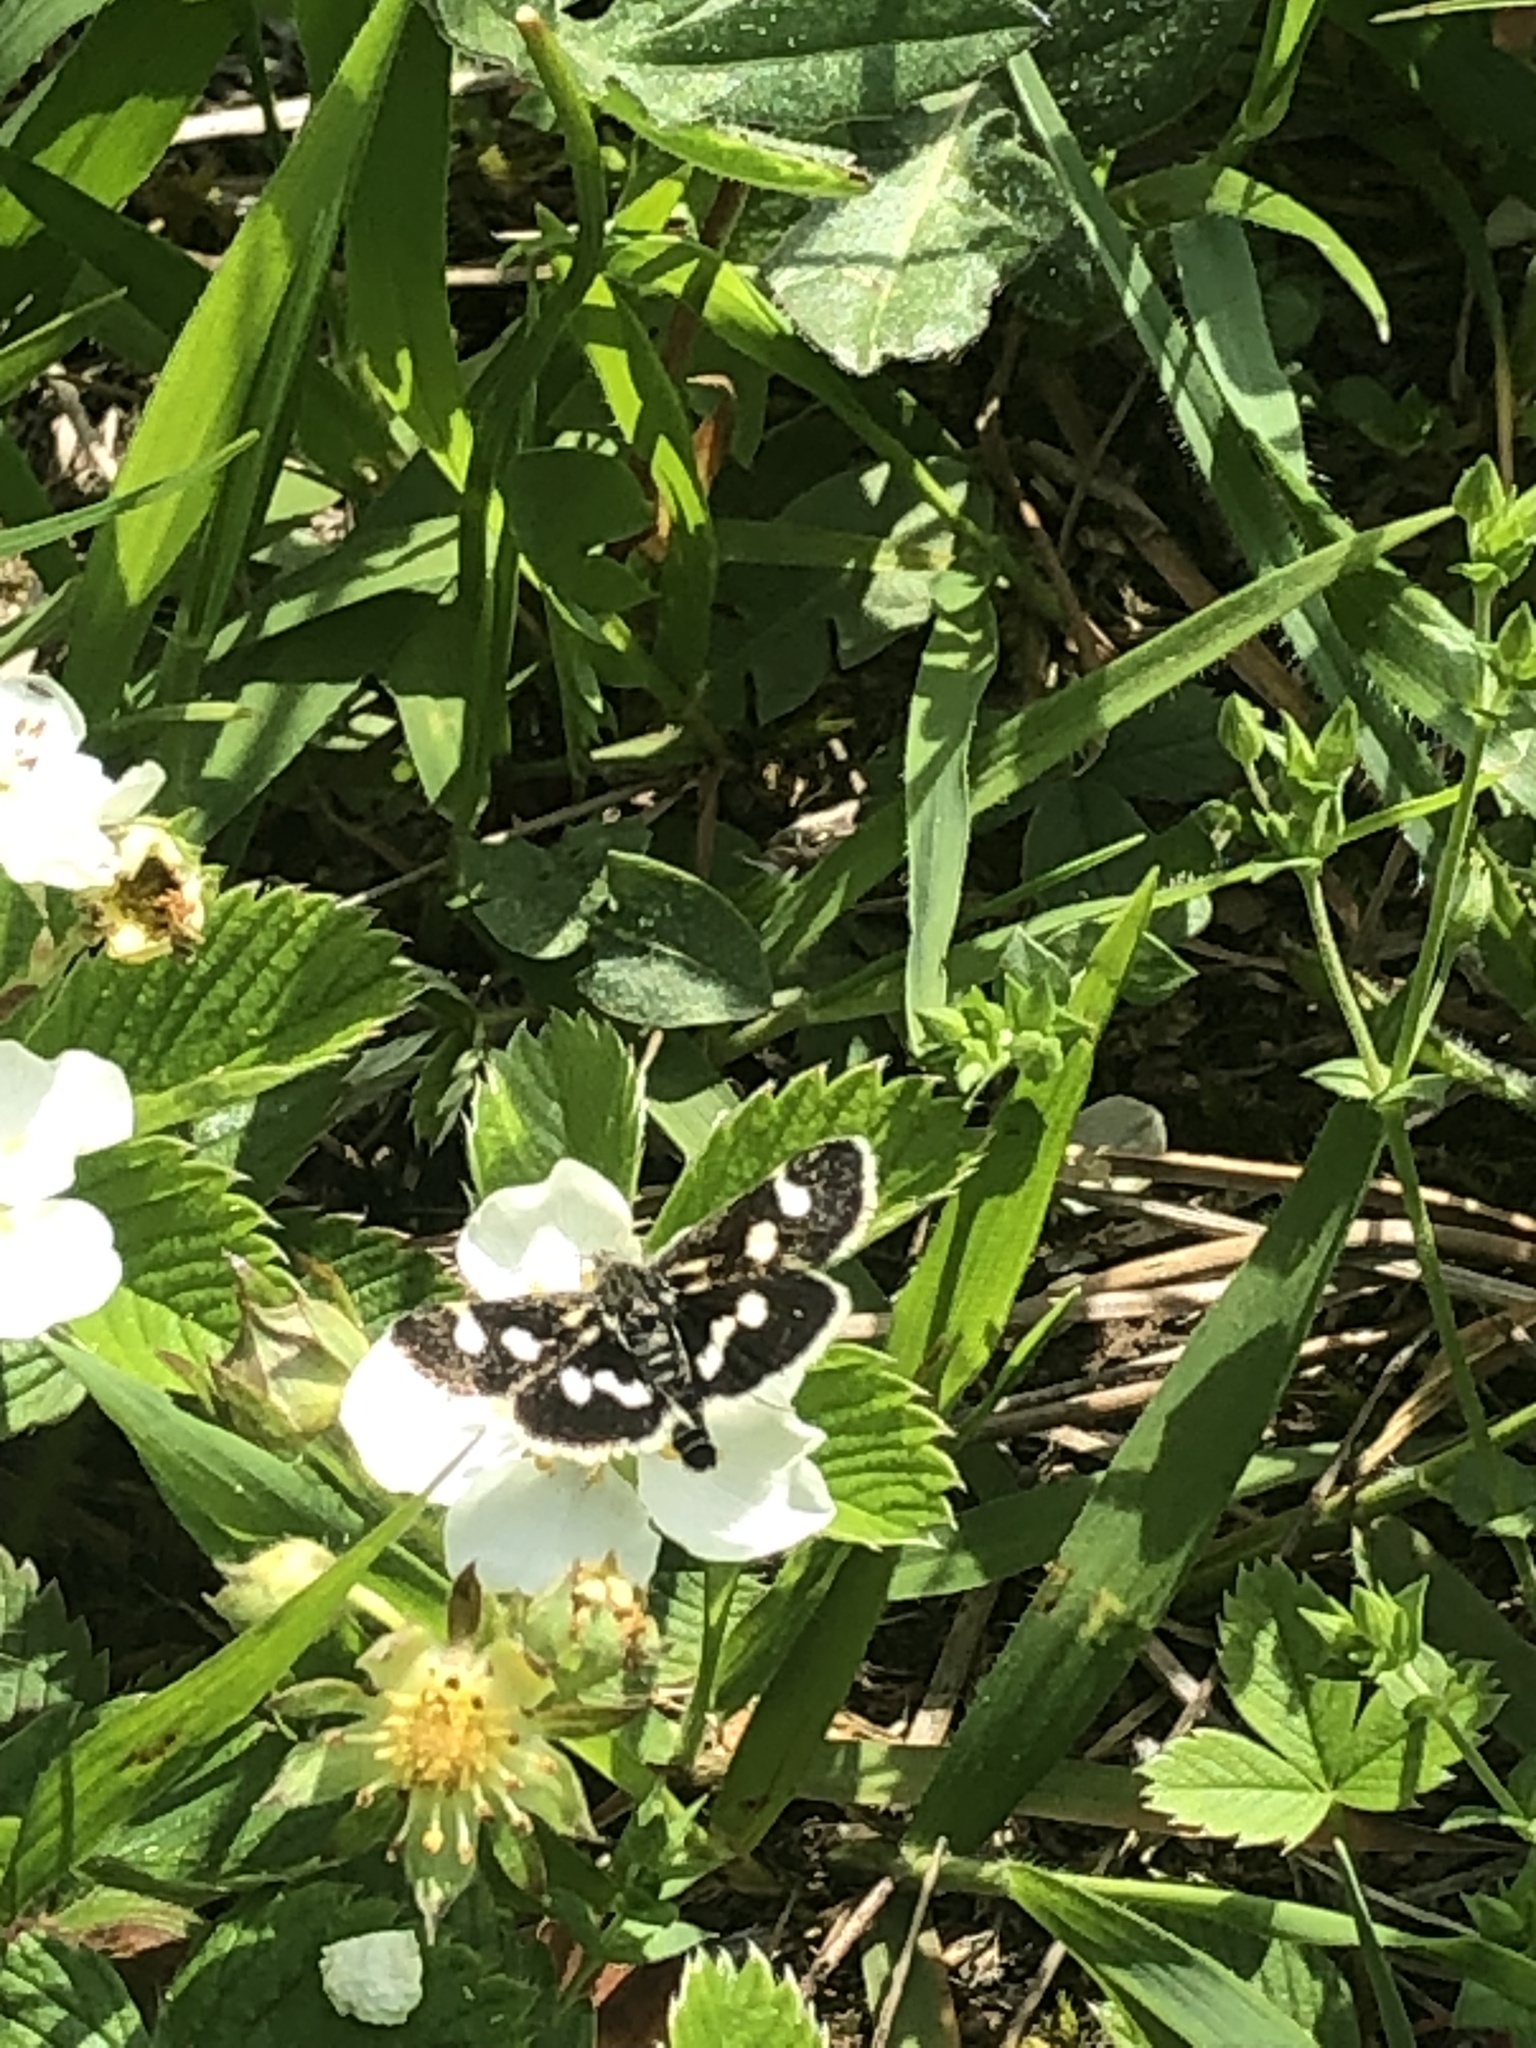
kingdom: Animalia
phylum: Arthropoda
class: Insecta
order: Lepidoptera
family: Crambidae
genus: Eurrhypis
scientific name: Eurrhypis pollinalis
